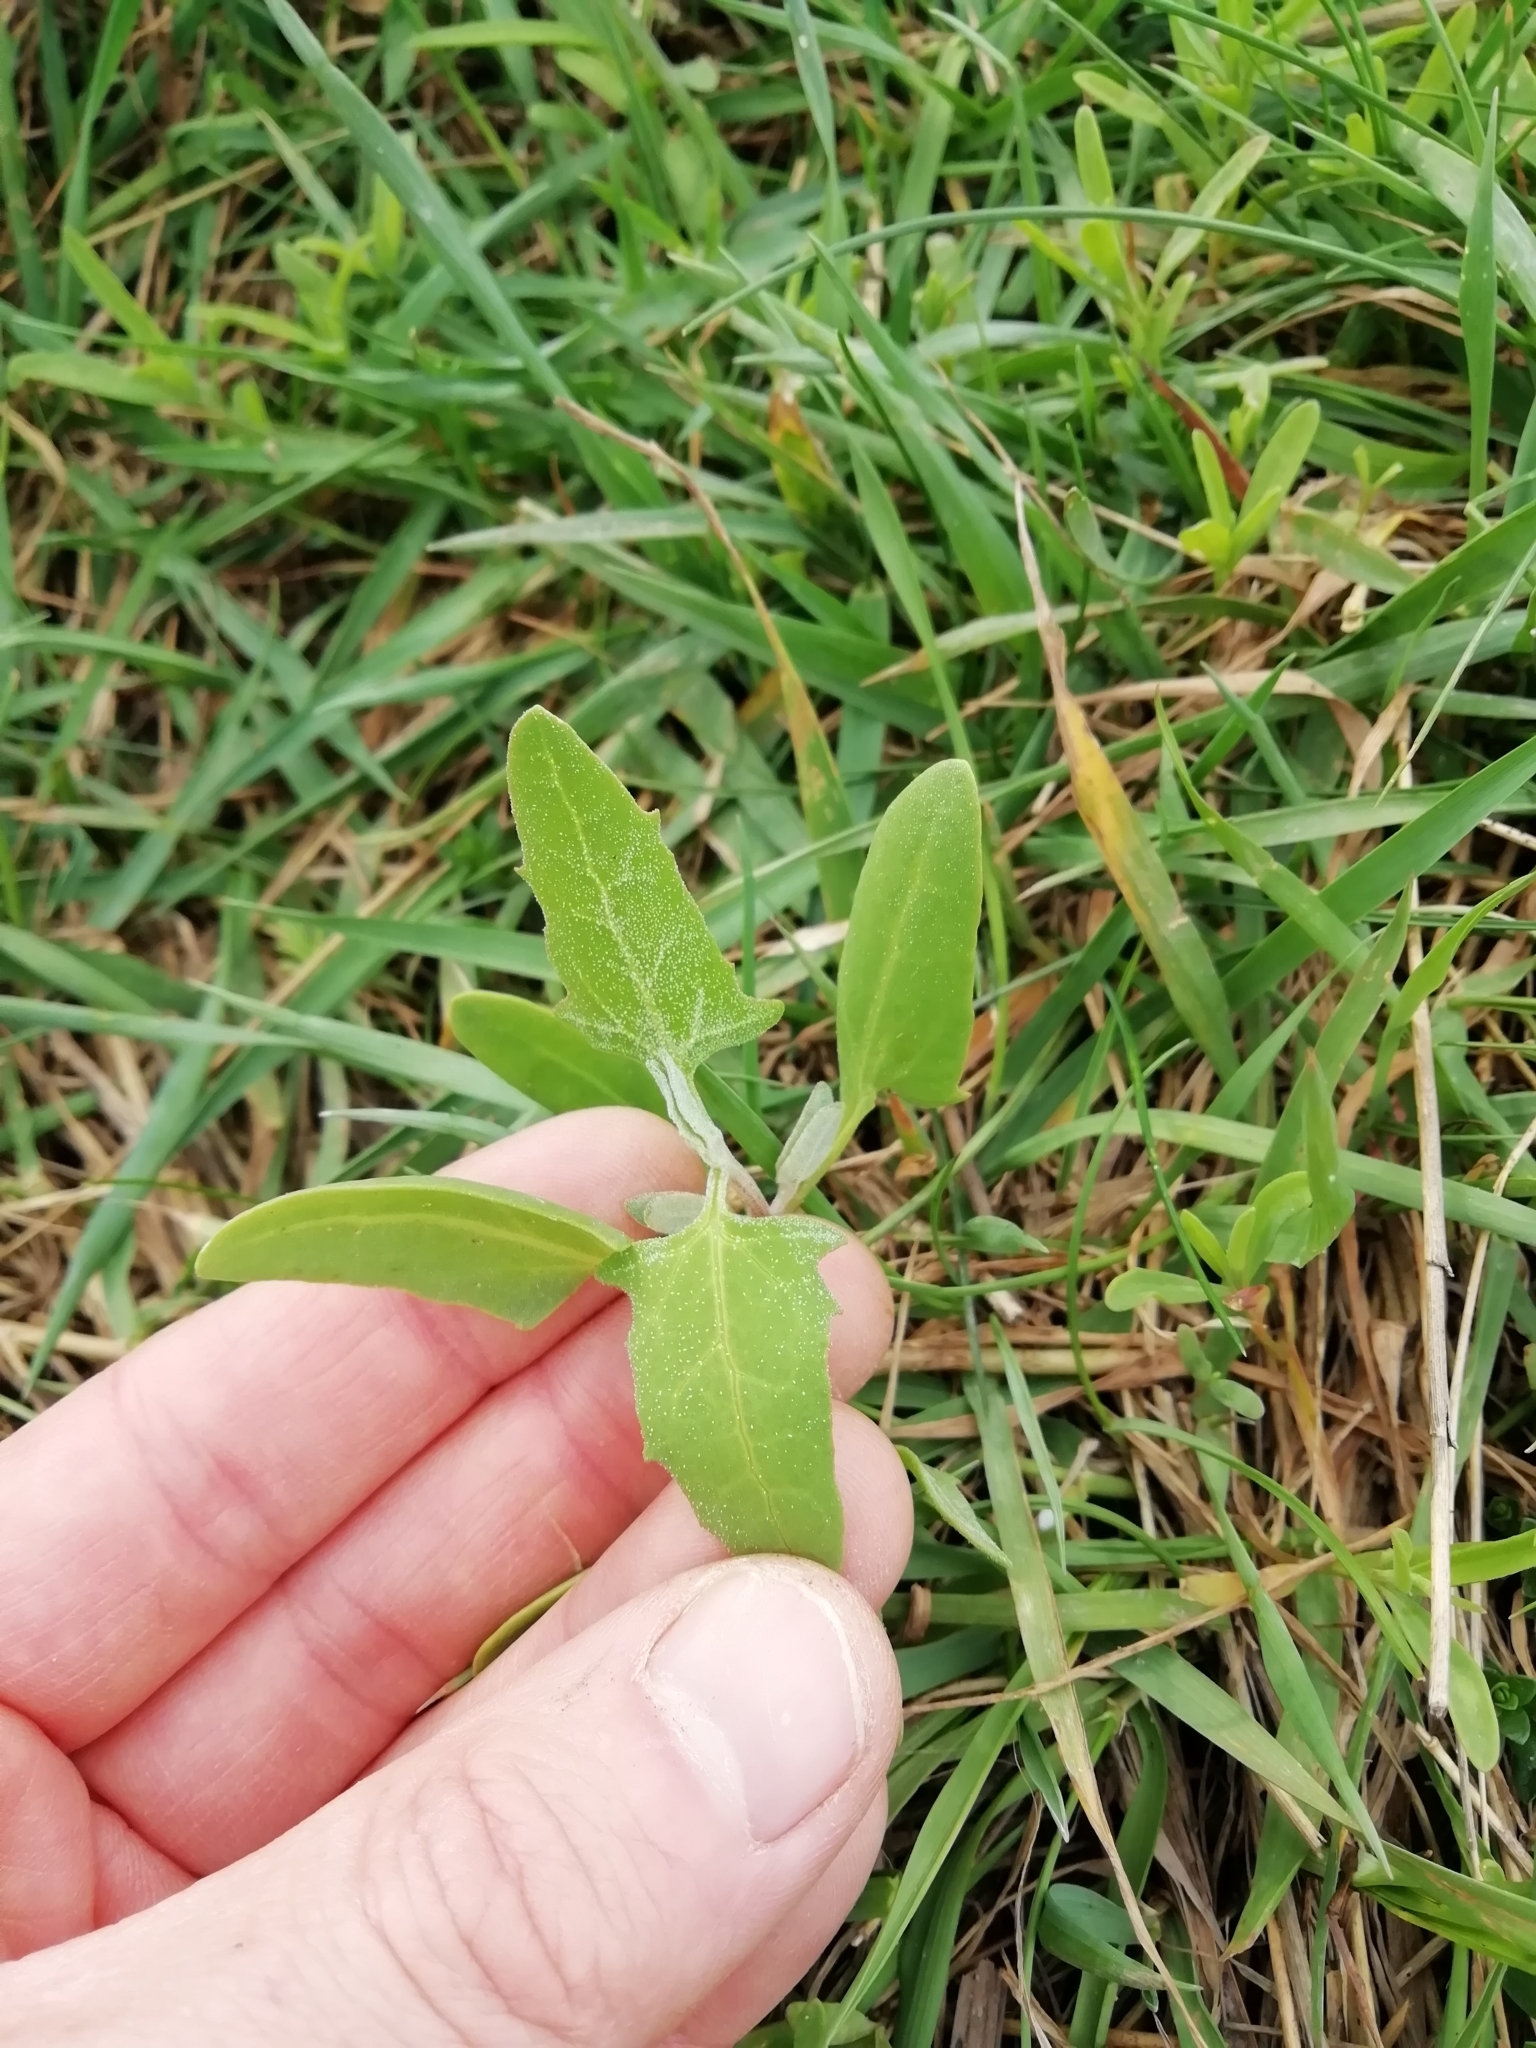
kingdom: Plantae
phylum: Tracheophyta
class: Magnoliopsida
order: Caryophyllales
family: Amaranthaceae
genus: Chenopodium
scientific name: Chenopodium album
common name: Fat-hen
